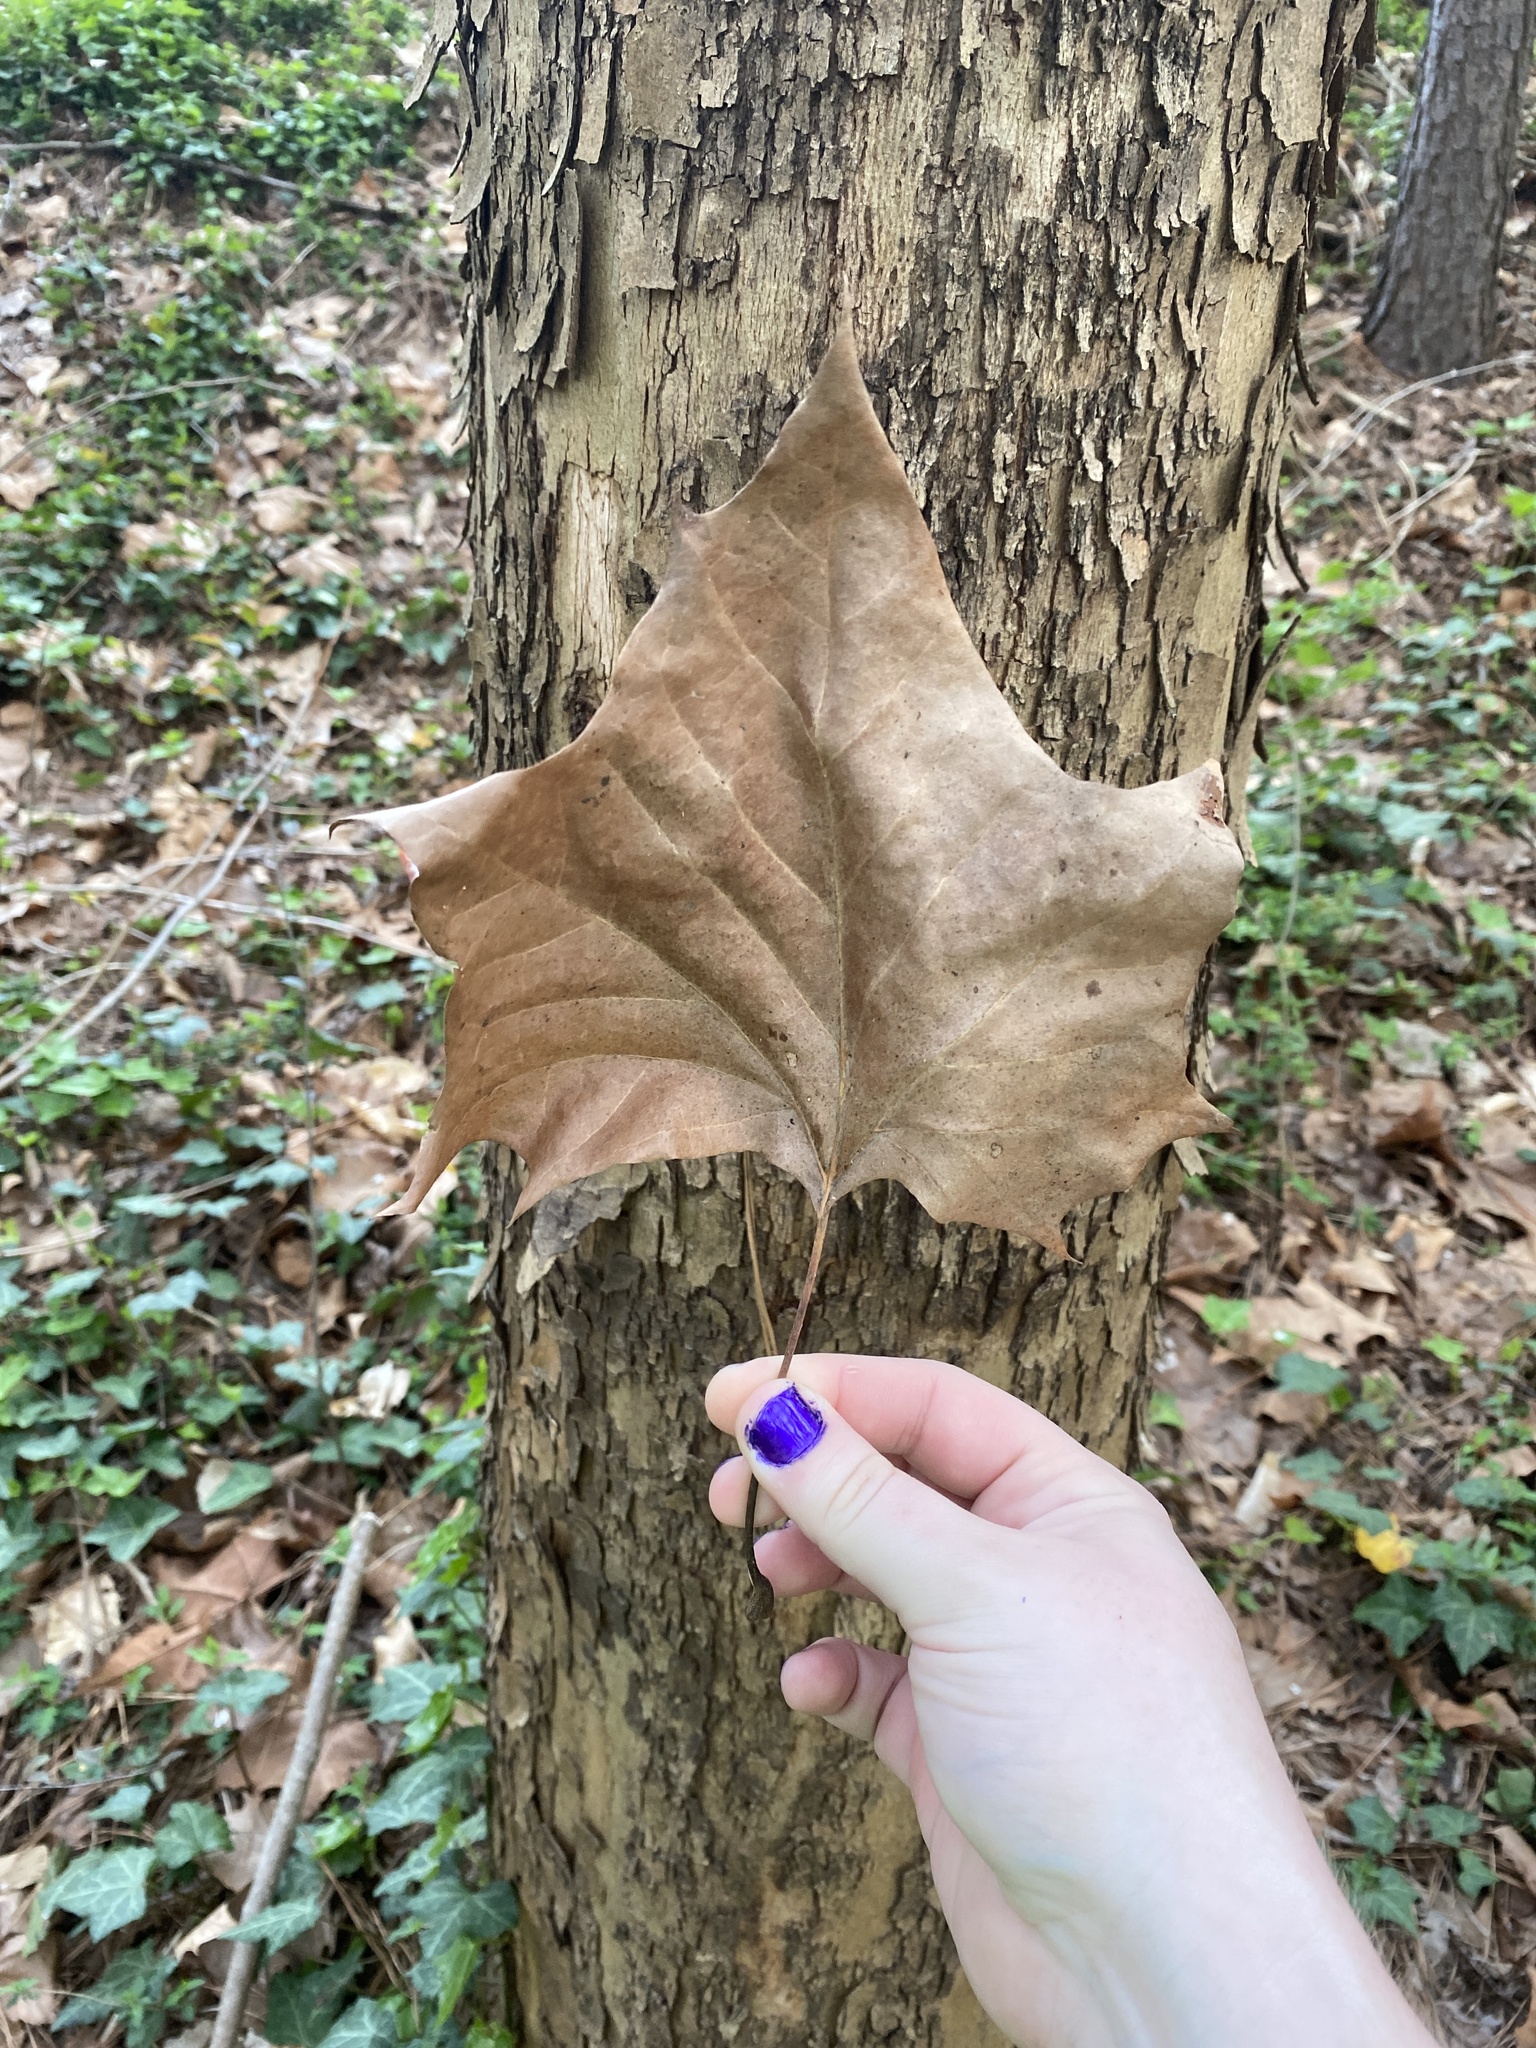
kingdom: Plantae
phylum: Tracheophyta
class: Magnoliopsida
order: Proteales
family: Platanaceae
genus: Platanus
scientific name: Platanus occidentalis
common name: American sycamore
